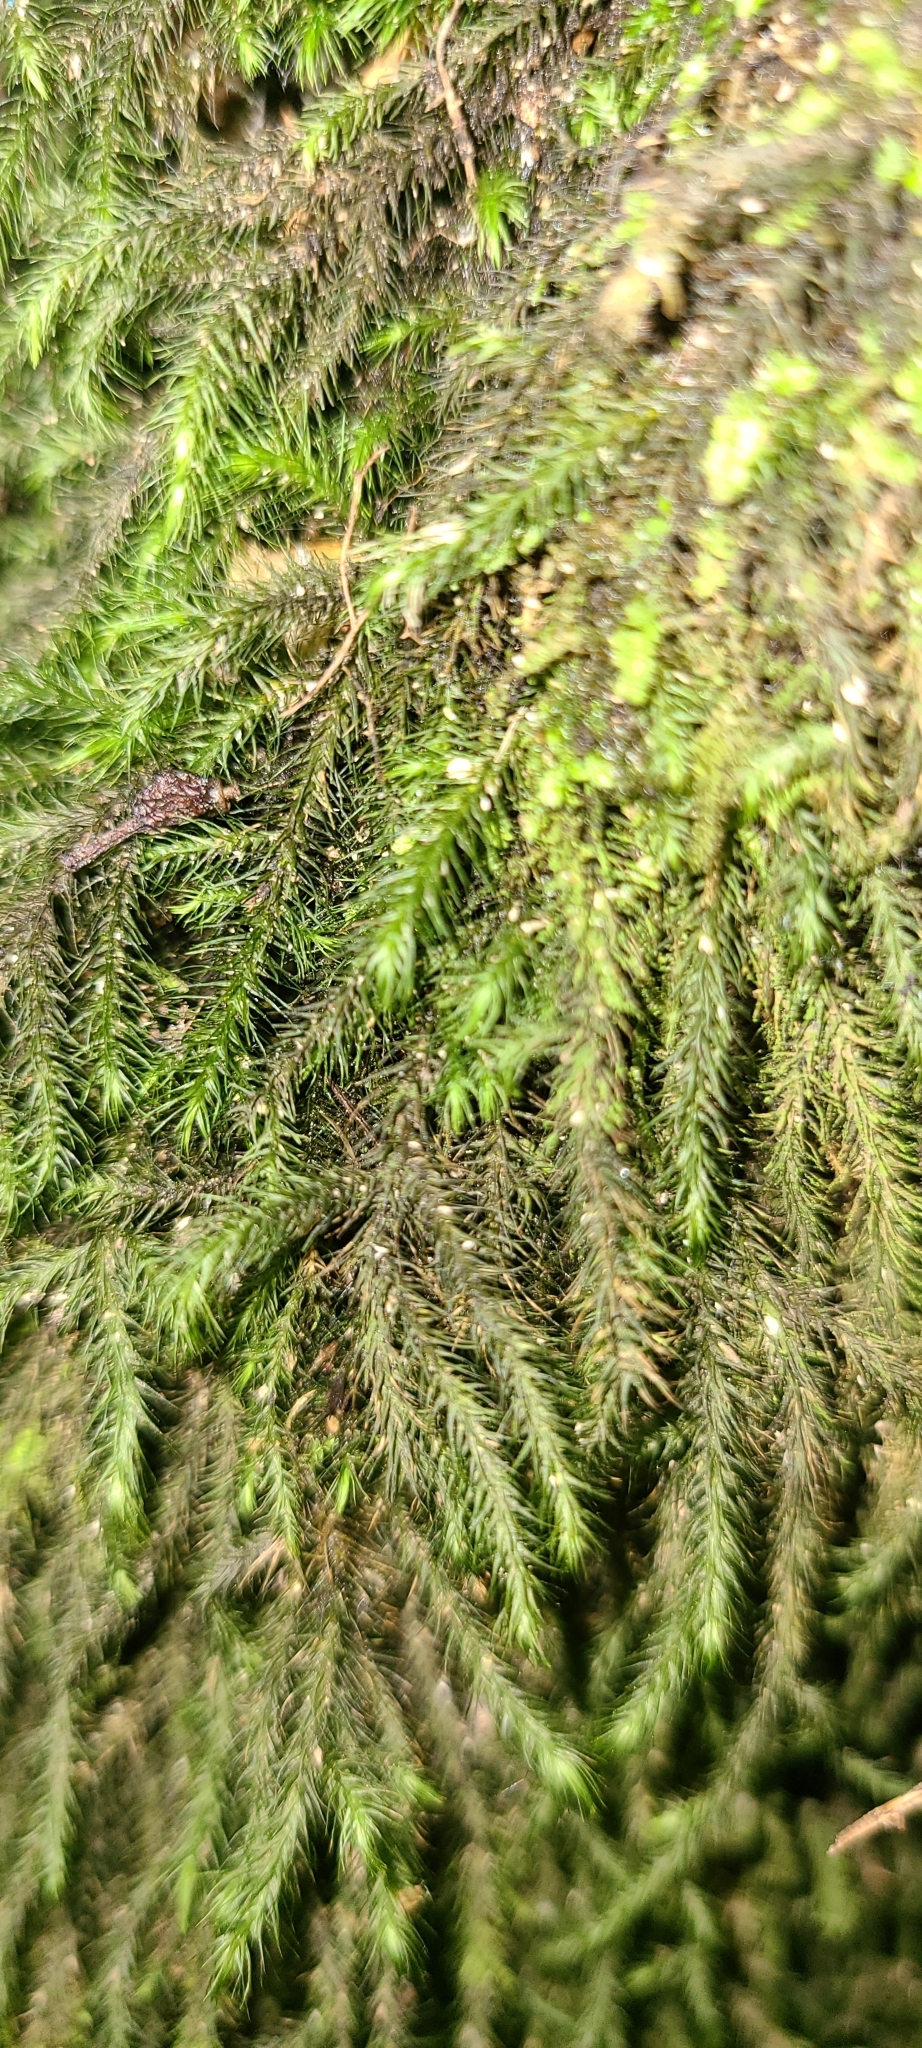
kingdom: Plantae
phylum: Bryophyta
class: Bryopsida
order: Hypnales
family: Neckeraceae
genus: Echinodiopsis
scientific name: Echinodiopsis hispida
